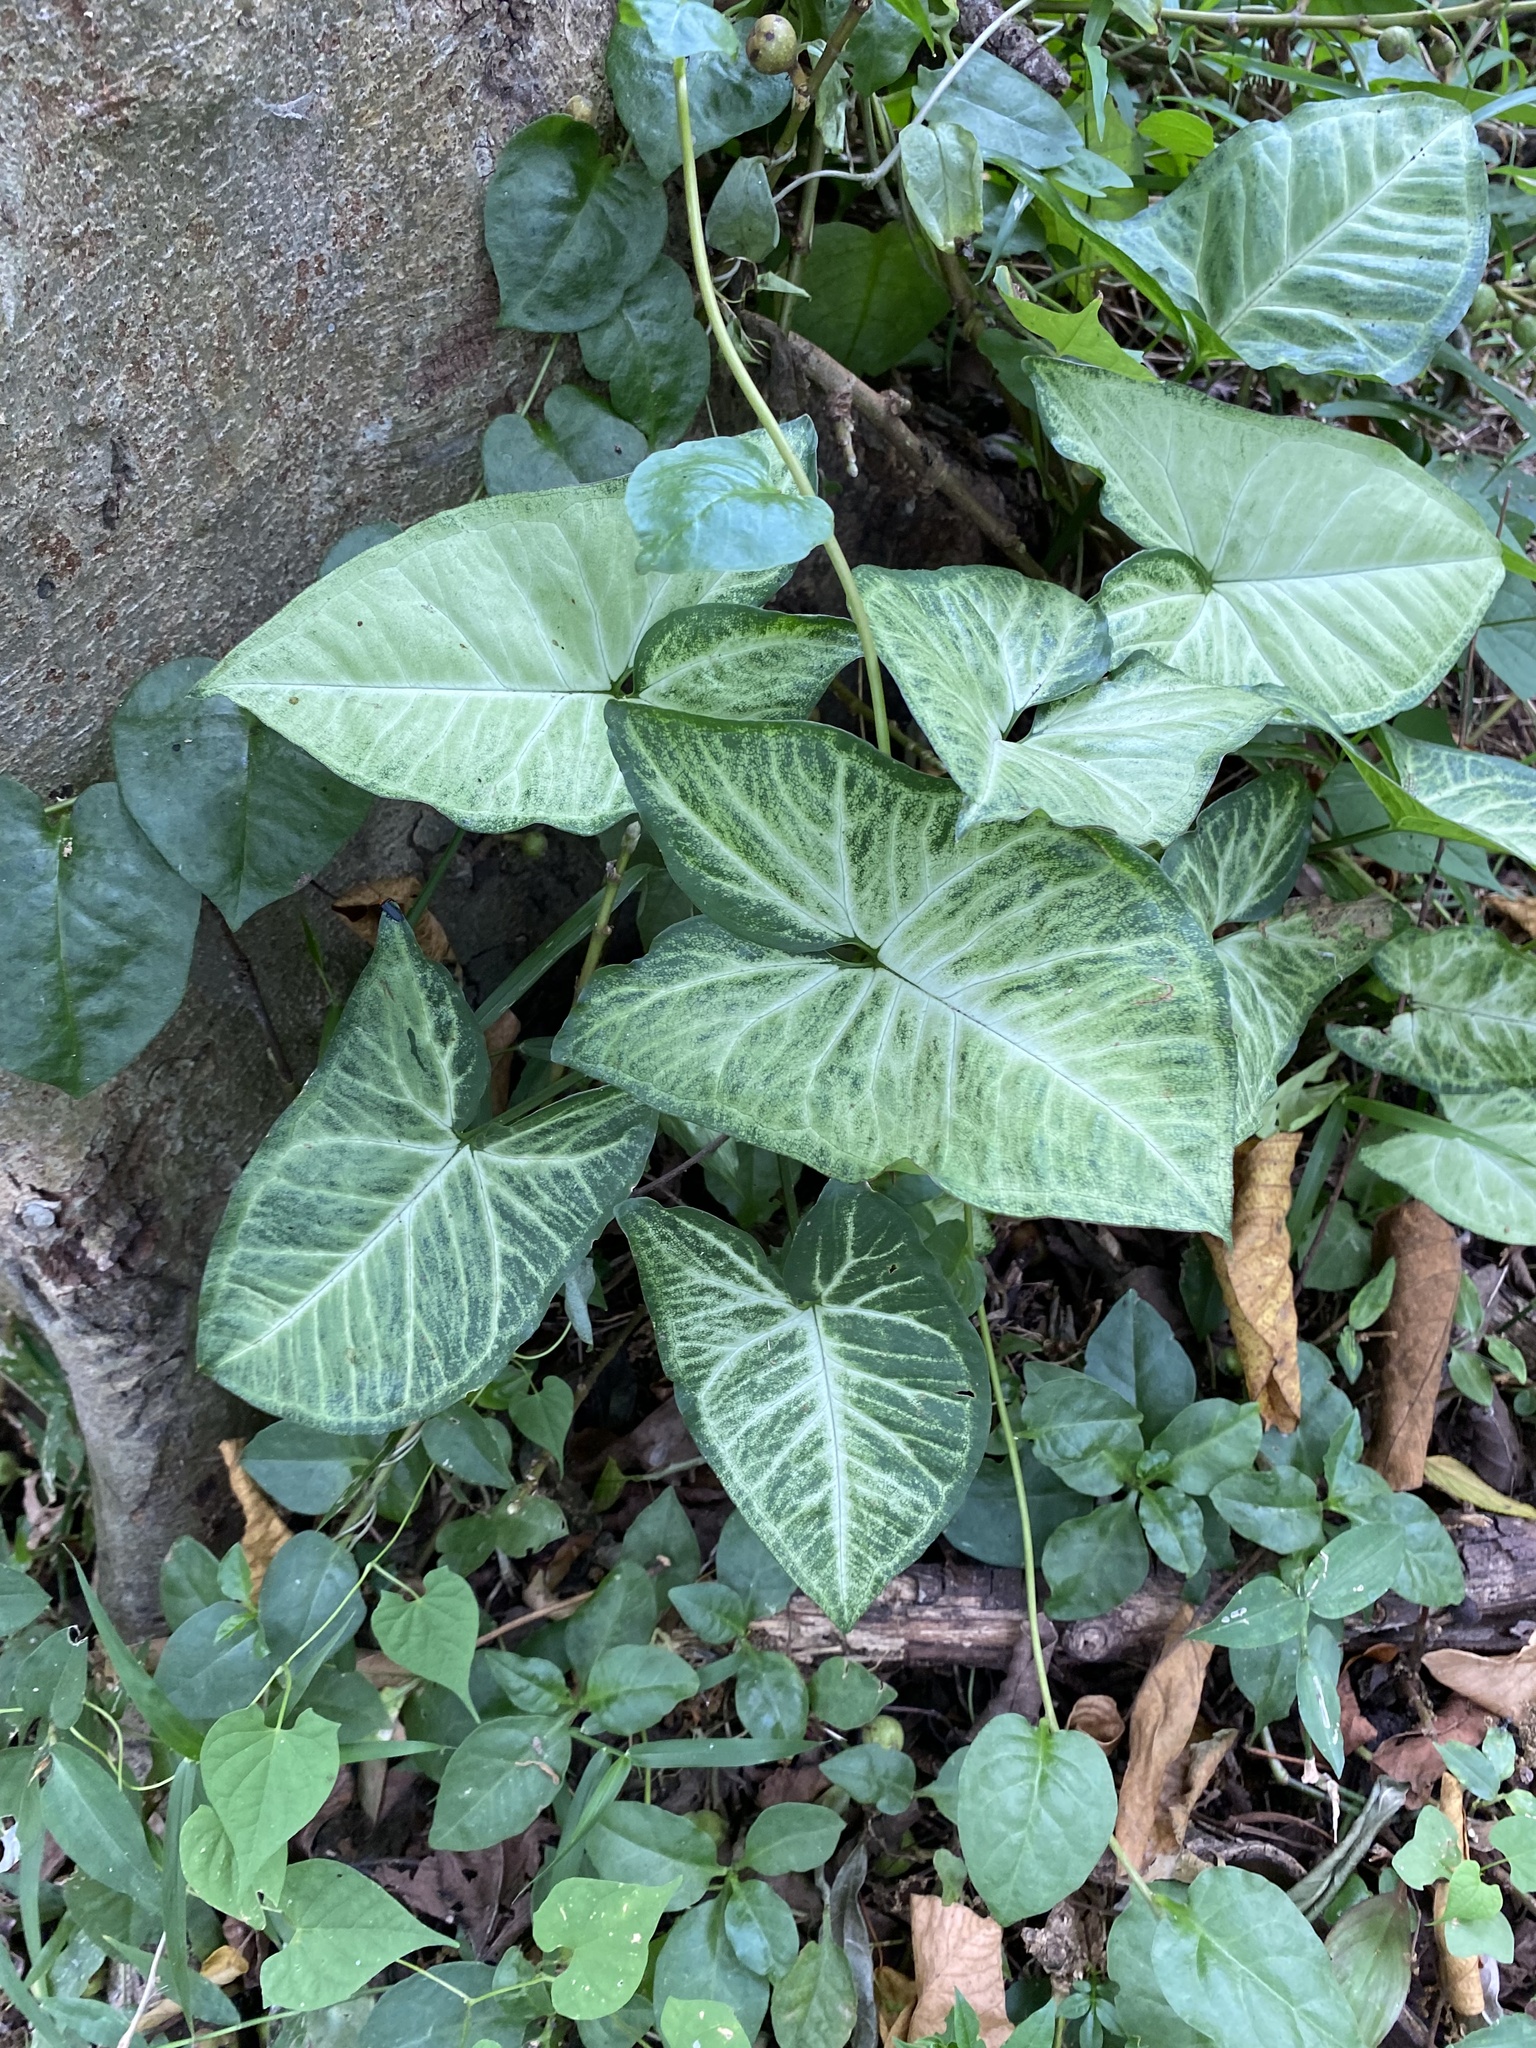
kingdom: Plantae
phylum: Tracheophyta
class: Liliopsida
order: Alismatales
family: Araceae
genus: Syngonium
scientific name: Syngonium podophyllum
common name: American evergreen
